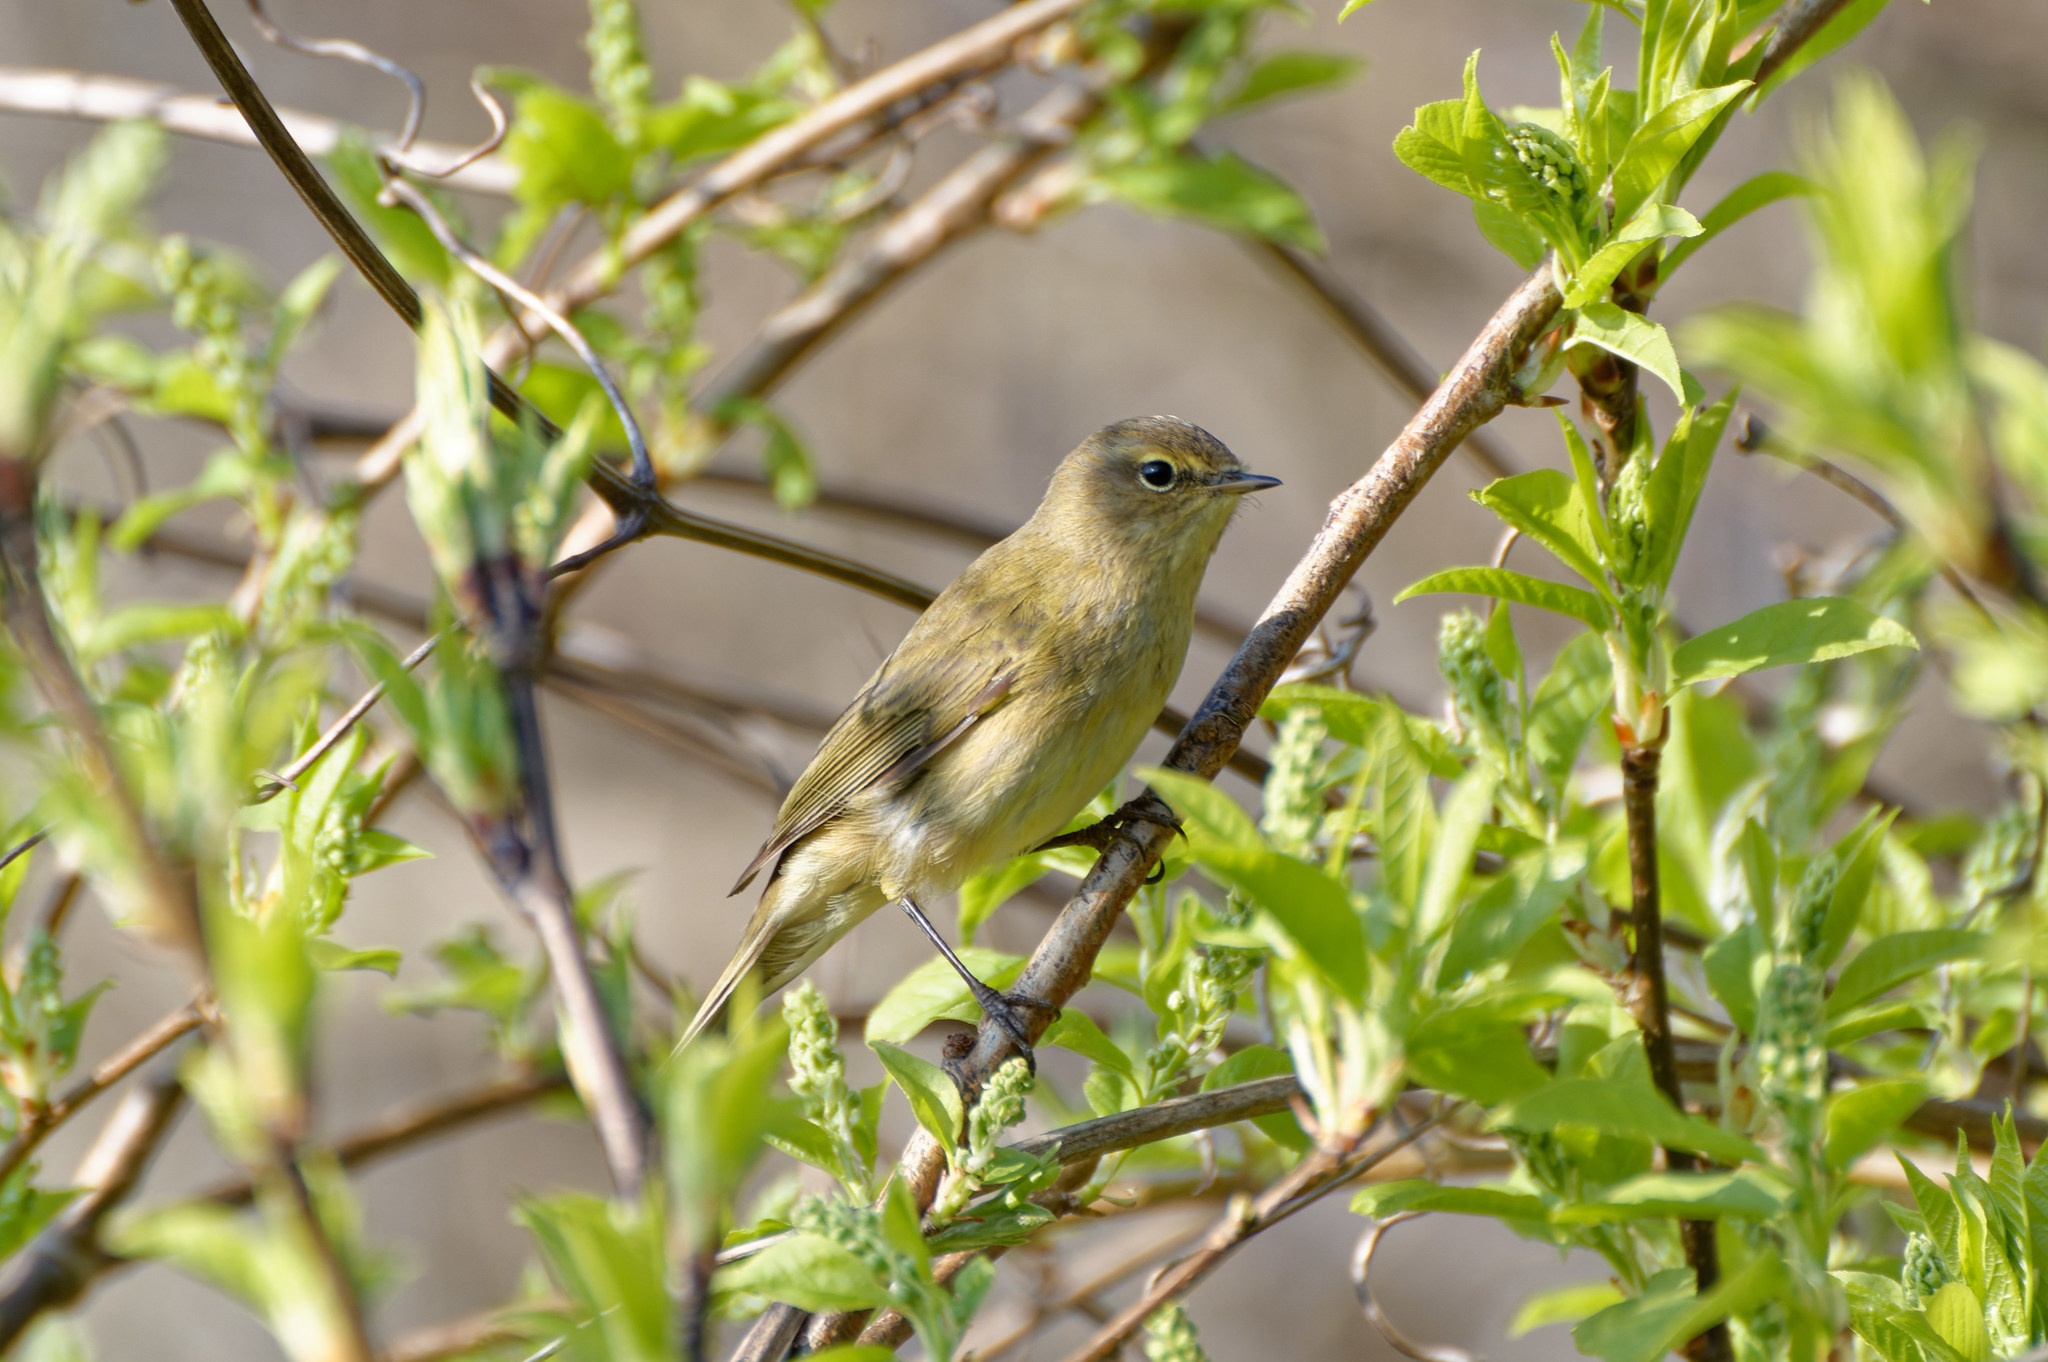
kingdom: Animalia
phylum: Chordata
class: Aves
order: Passeriformes
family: Phylloscopidae
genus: Phylloscopus
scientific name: Phylloscopus collybita
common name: Common chiffchaff
